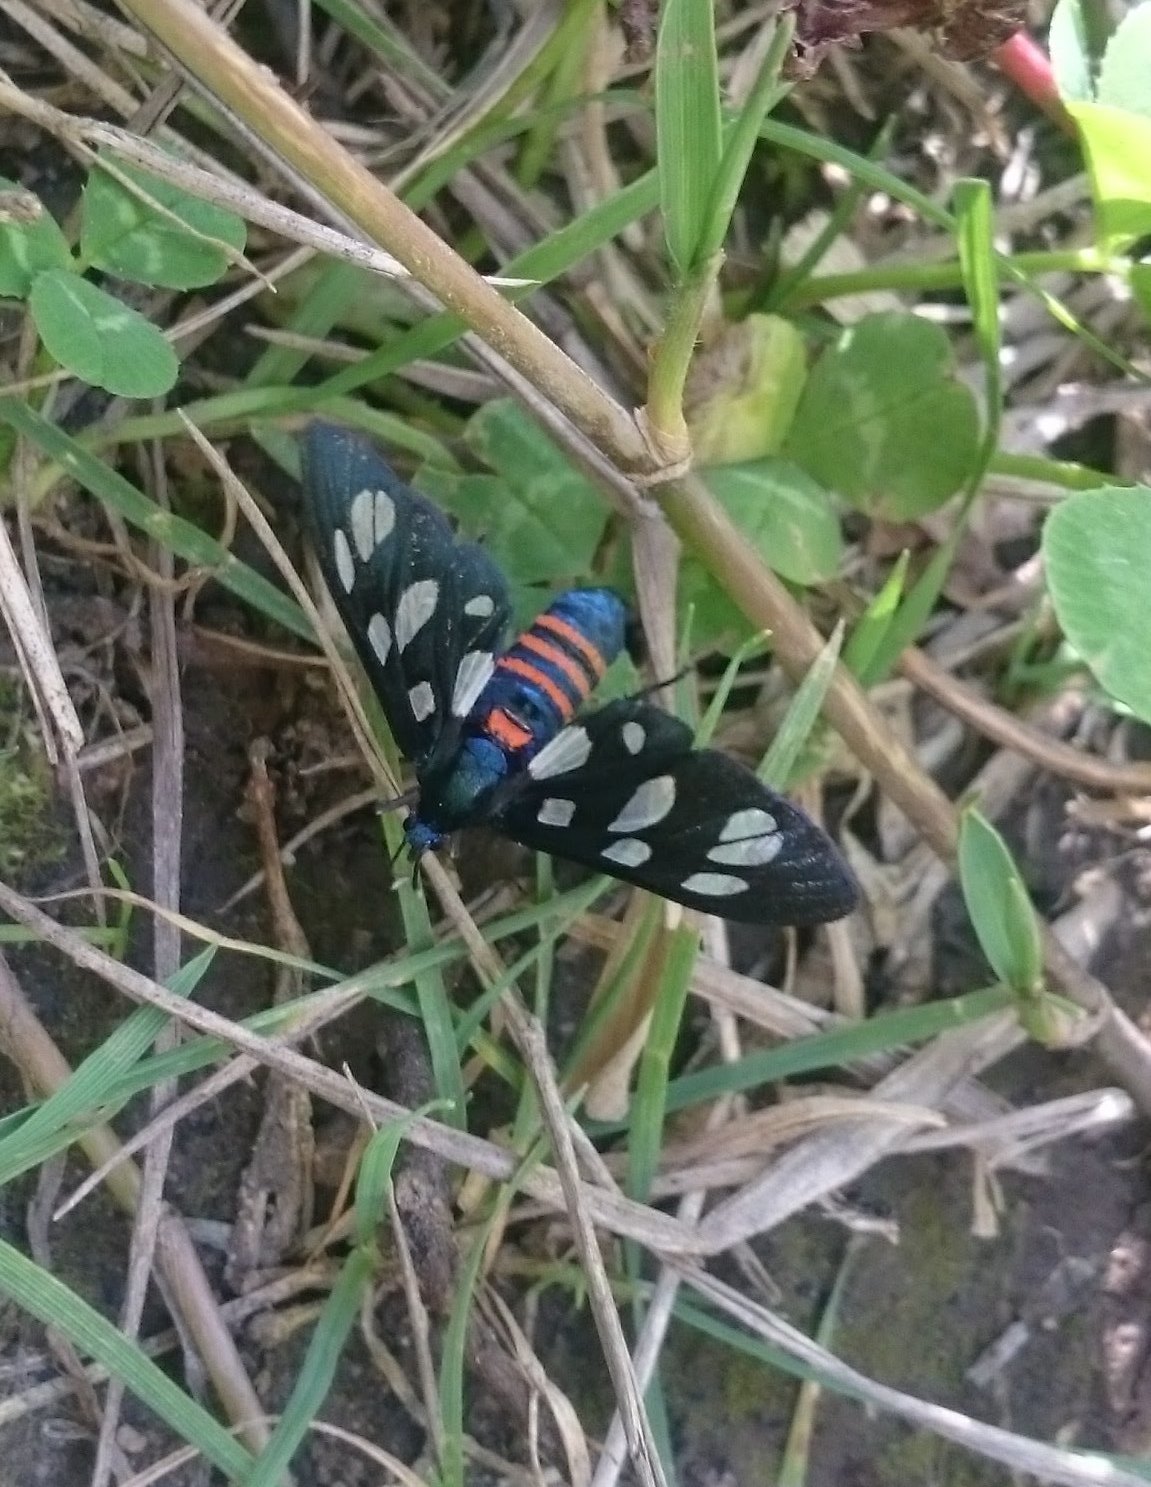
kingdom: Animalia
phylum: Arthropoda
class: Insecta
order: Lepidoptera
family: Erebidae
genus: Amata
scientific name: Amata mogadorensis
